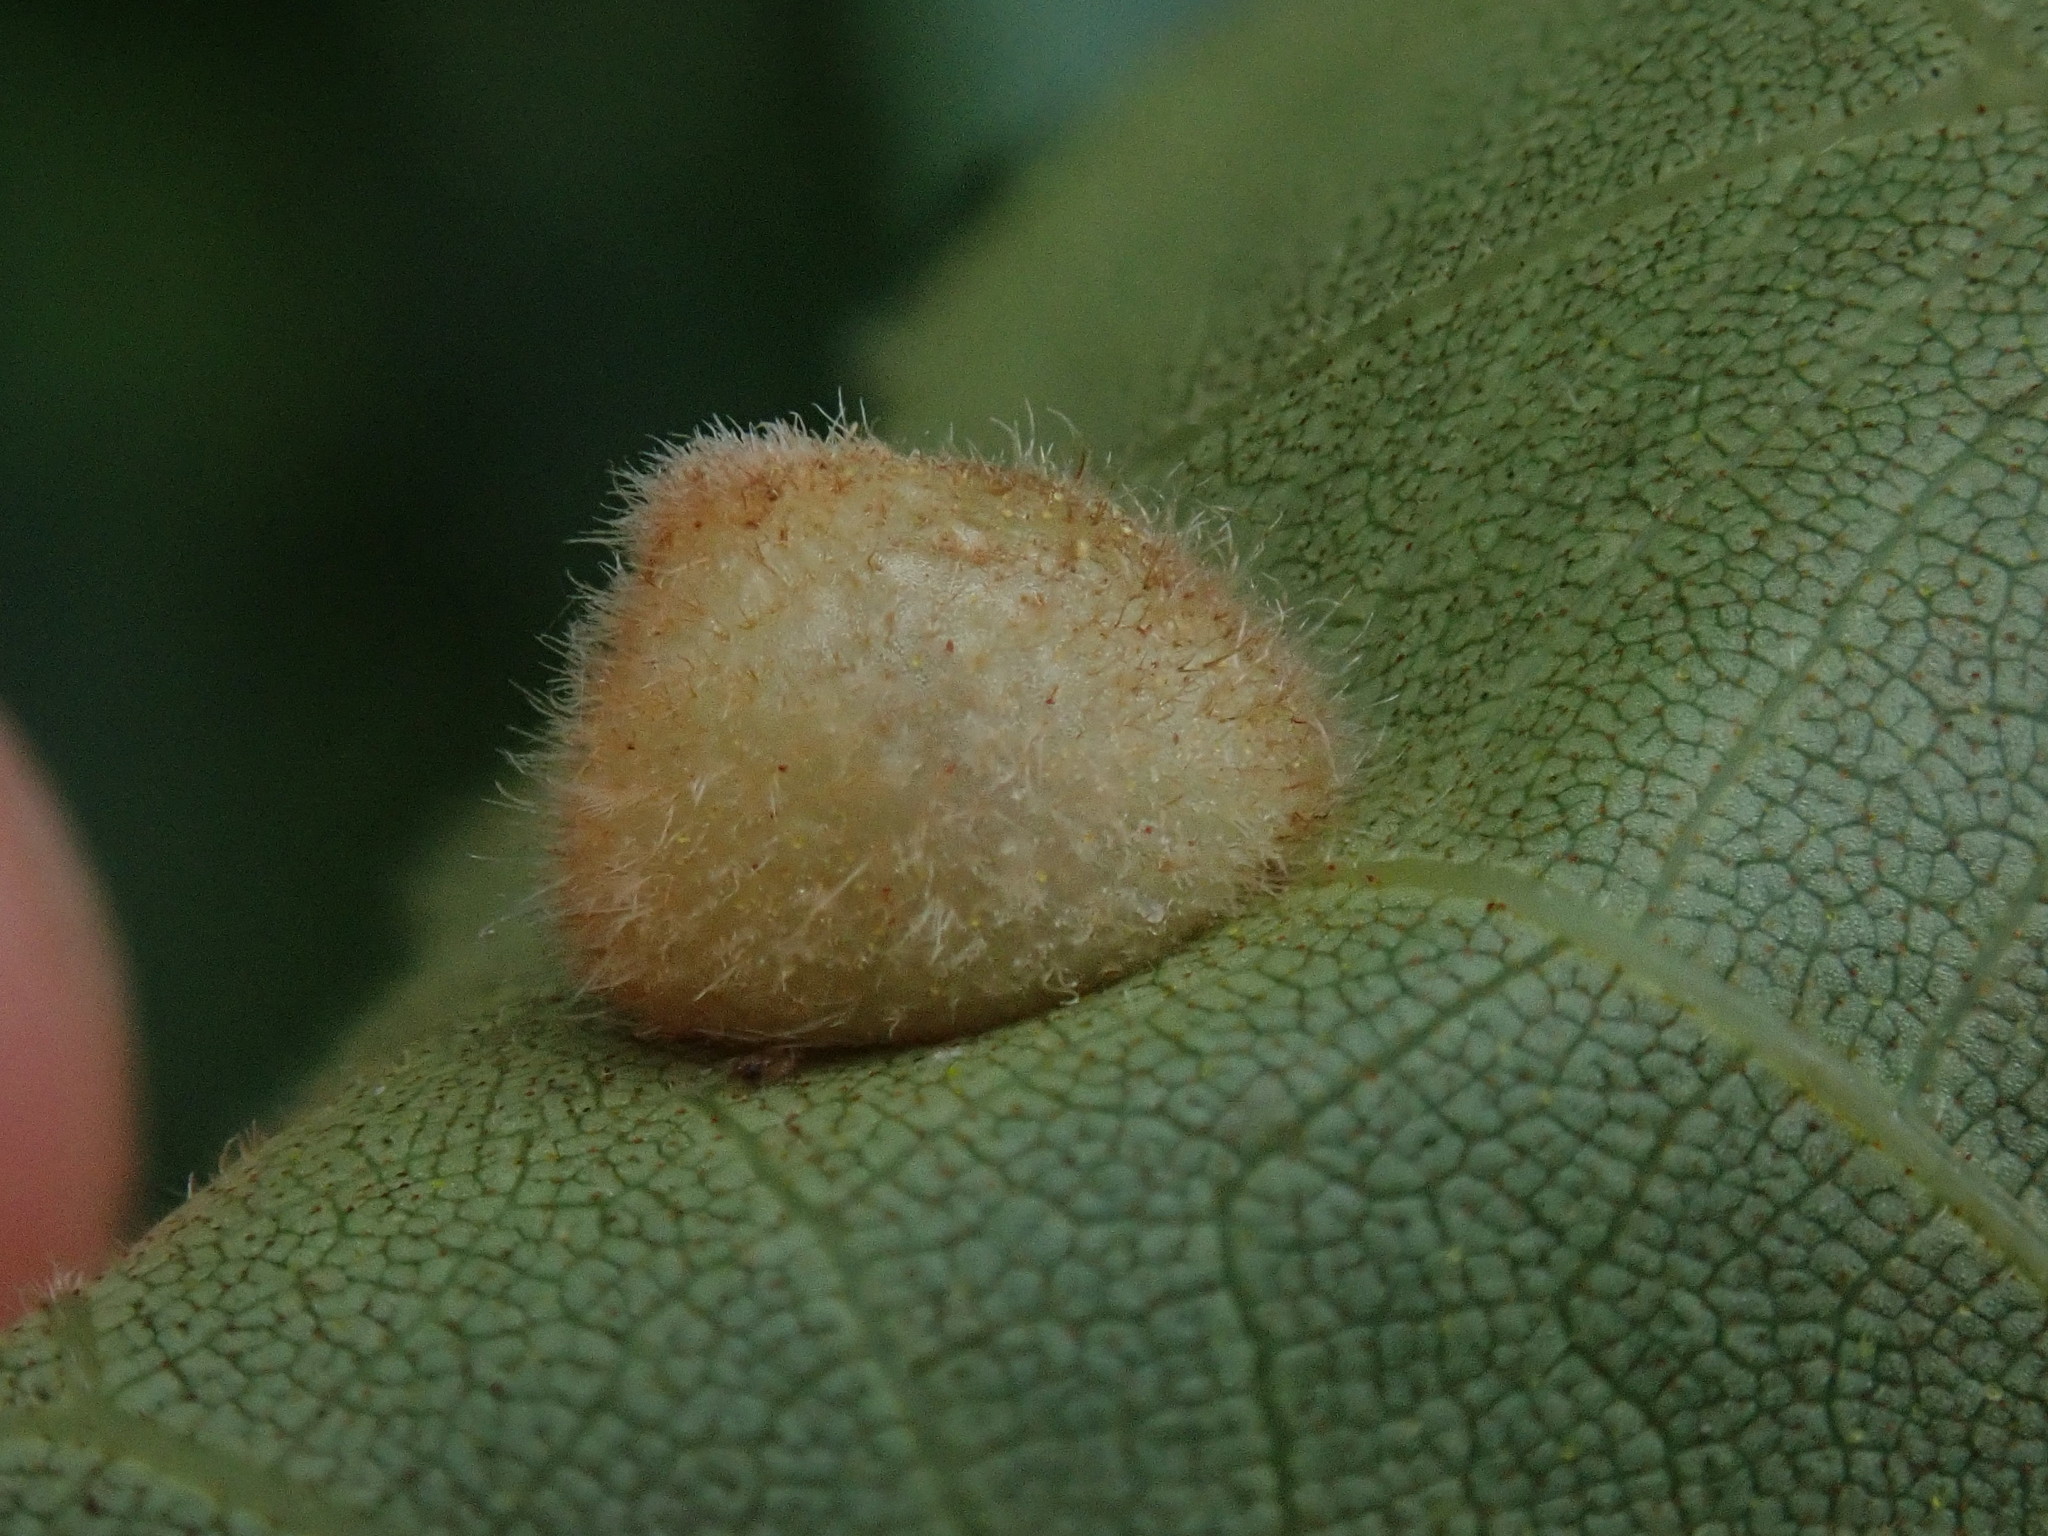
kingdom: Animalia
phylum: Arthropoda
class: Insecta
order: Diptera
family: Cecidomyiidae
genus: Caryomyia
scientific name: Caryomyia persicoides
